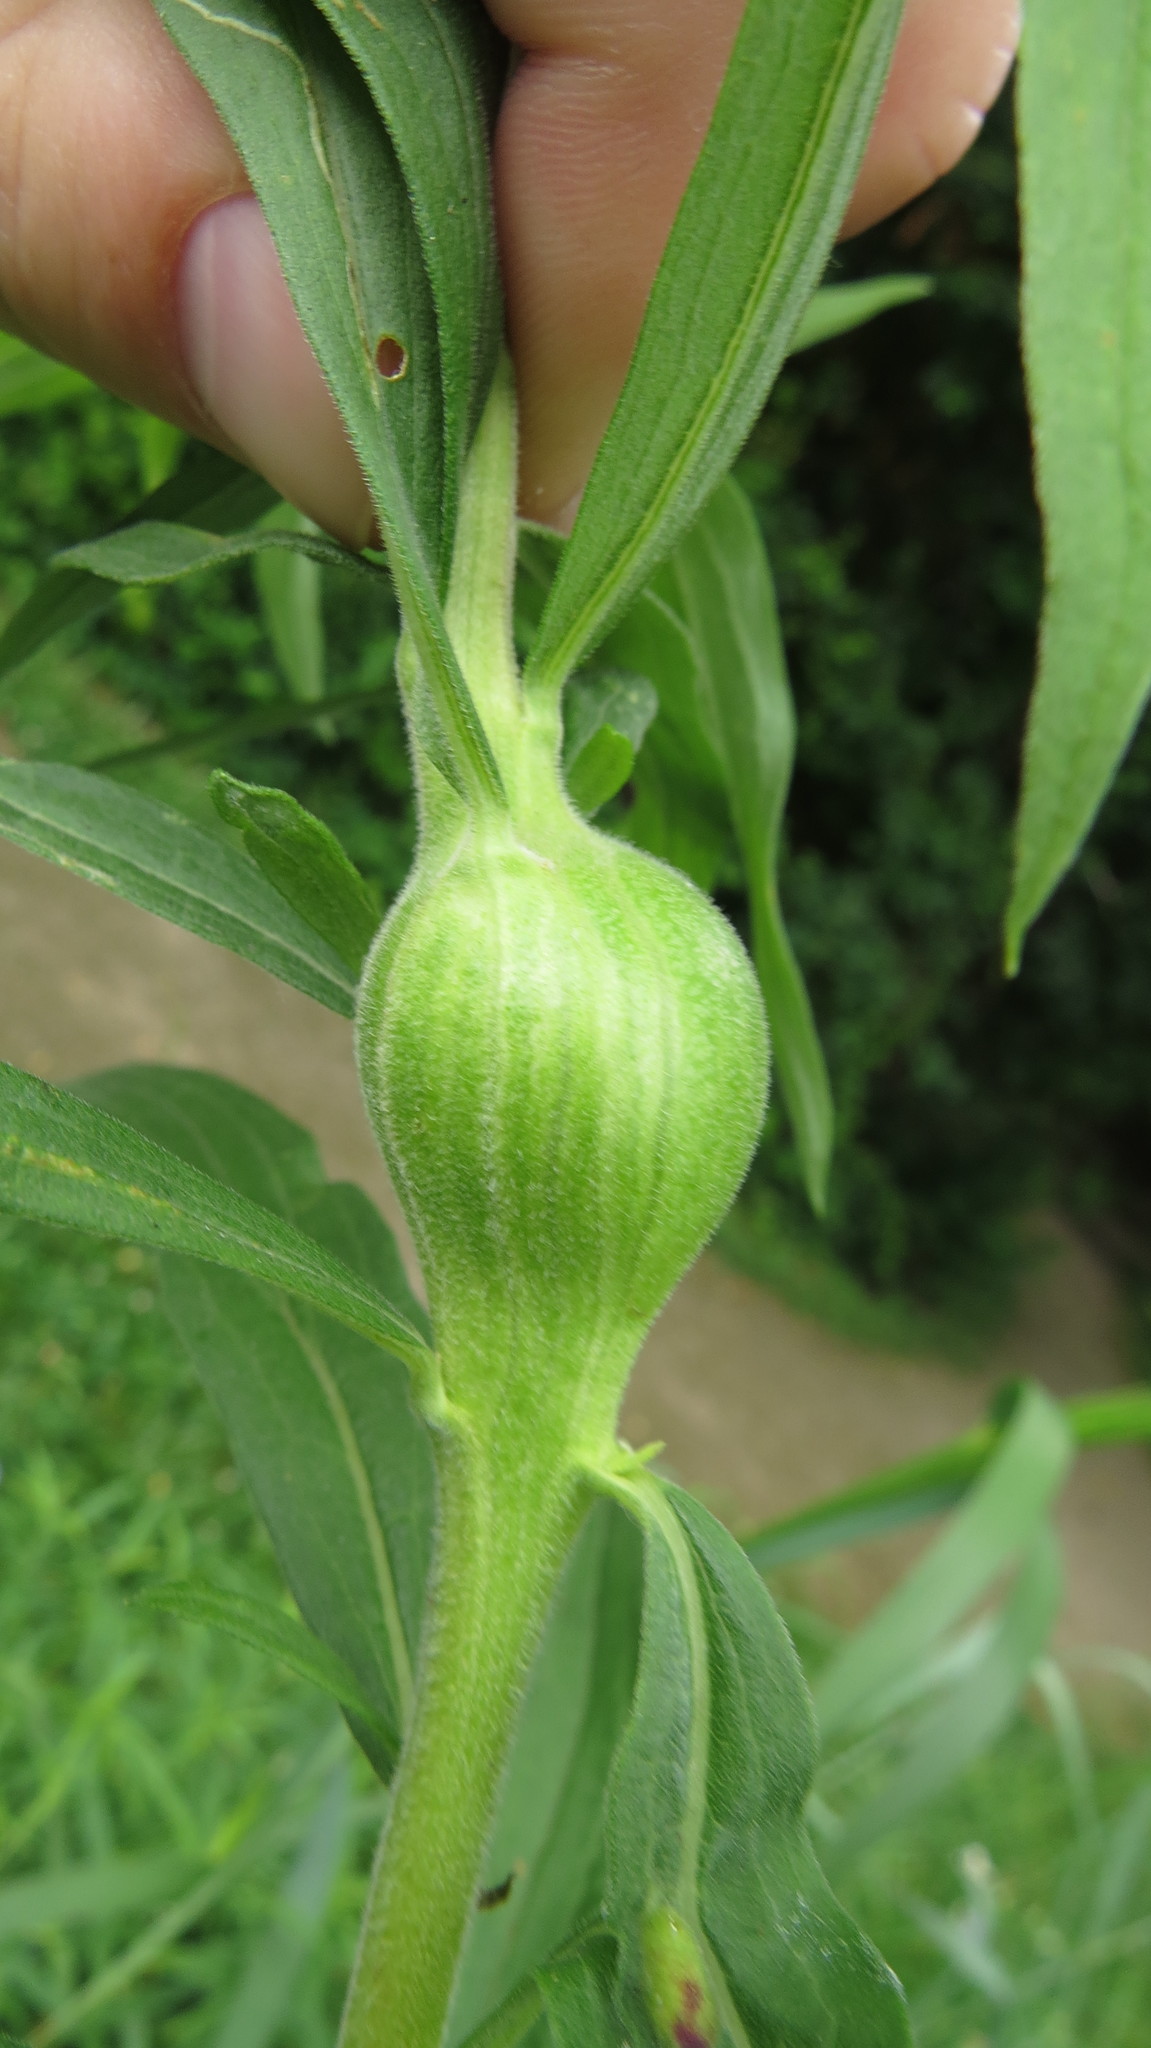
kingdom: Animalia
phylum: Arthropoda
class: Insecta
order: Diptera
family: Tephritidae
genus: Eurosta
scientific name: Eurosta solidaginis
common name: Goldenrod gall fly
